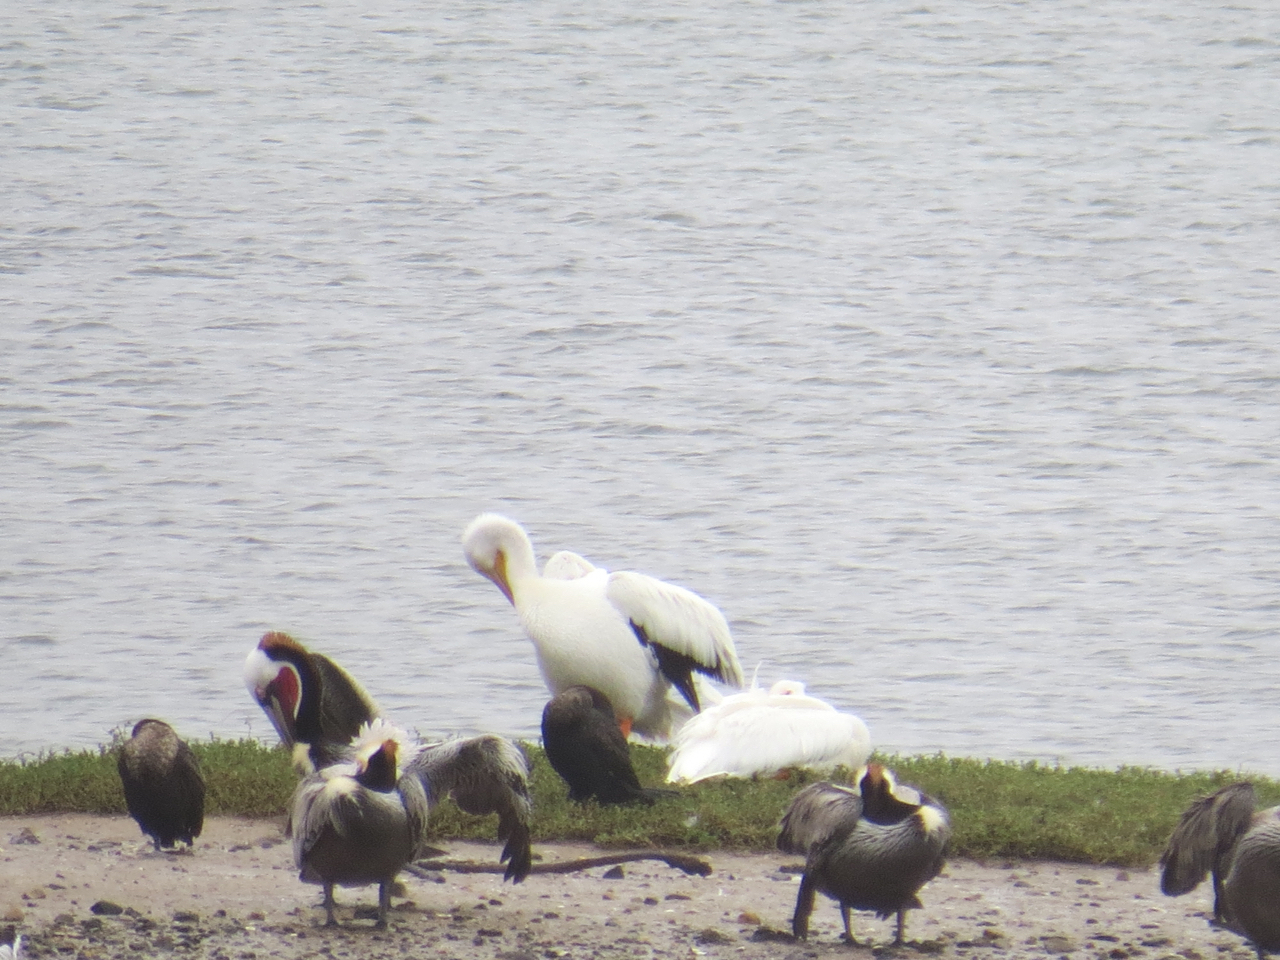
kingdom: Animalia
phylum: Chordata
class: Aves
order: Pelecaniformes
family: Pelecanidae
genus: Pelecanus
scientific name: Pelecanus erythrorhynchos
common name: American white pelican
